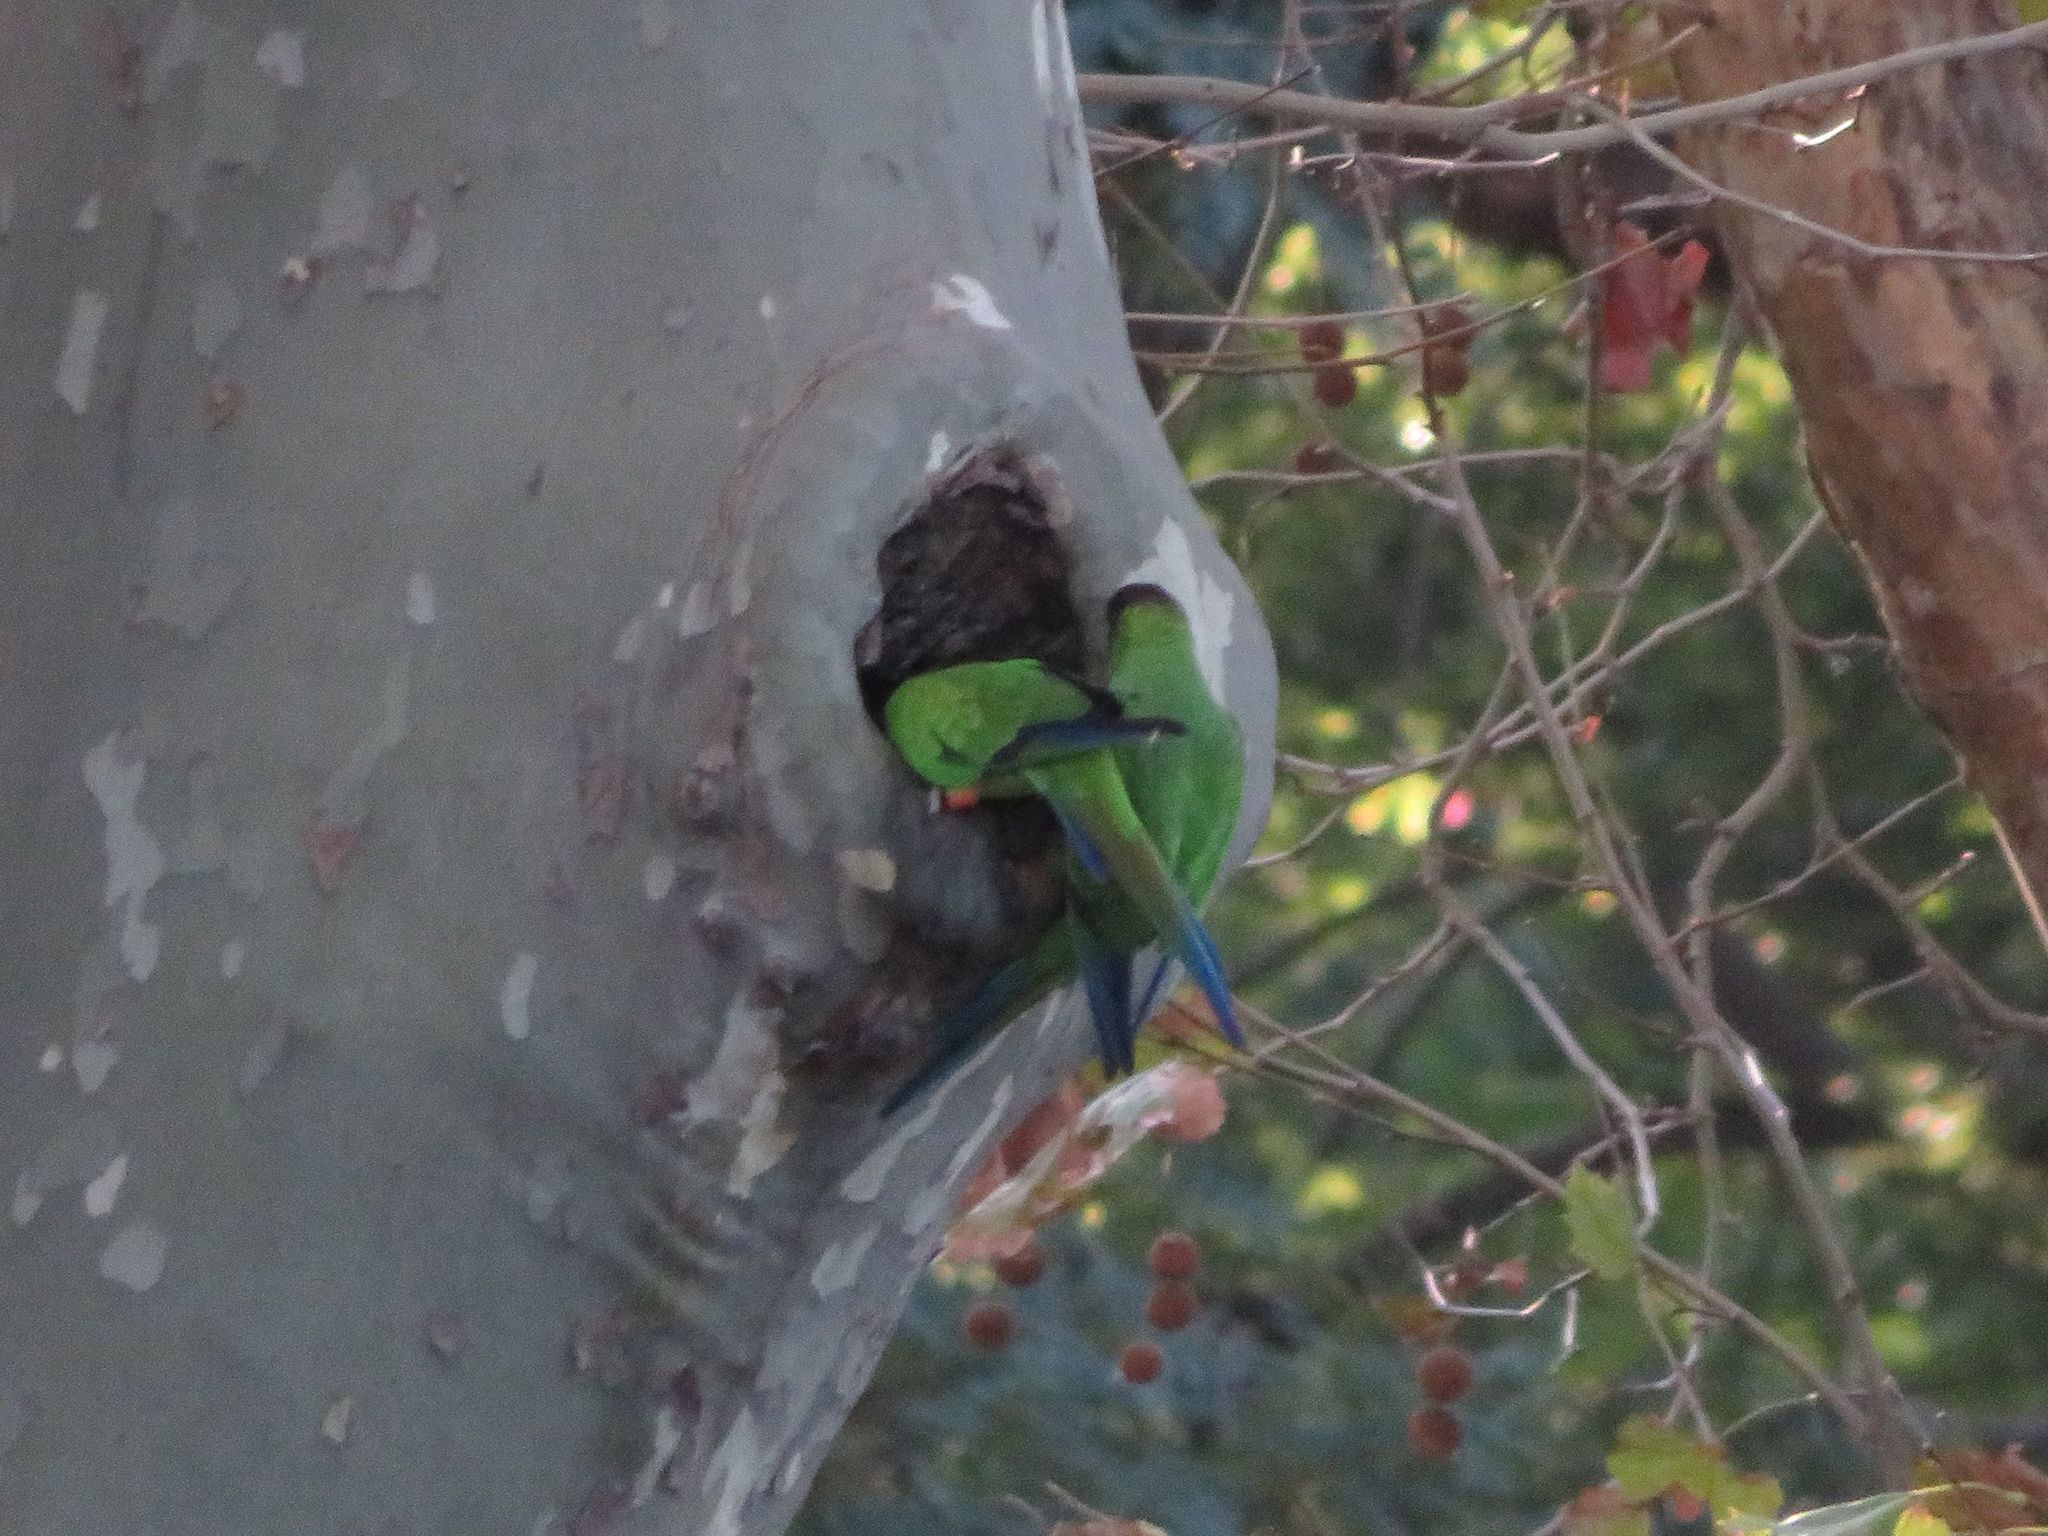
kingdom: Animalia
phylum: Chordata
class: Aves
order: Psittaciformes
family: Psittacidae
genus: Nandayus
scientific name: Nandayus nenday
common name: Nanday parakeet
